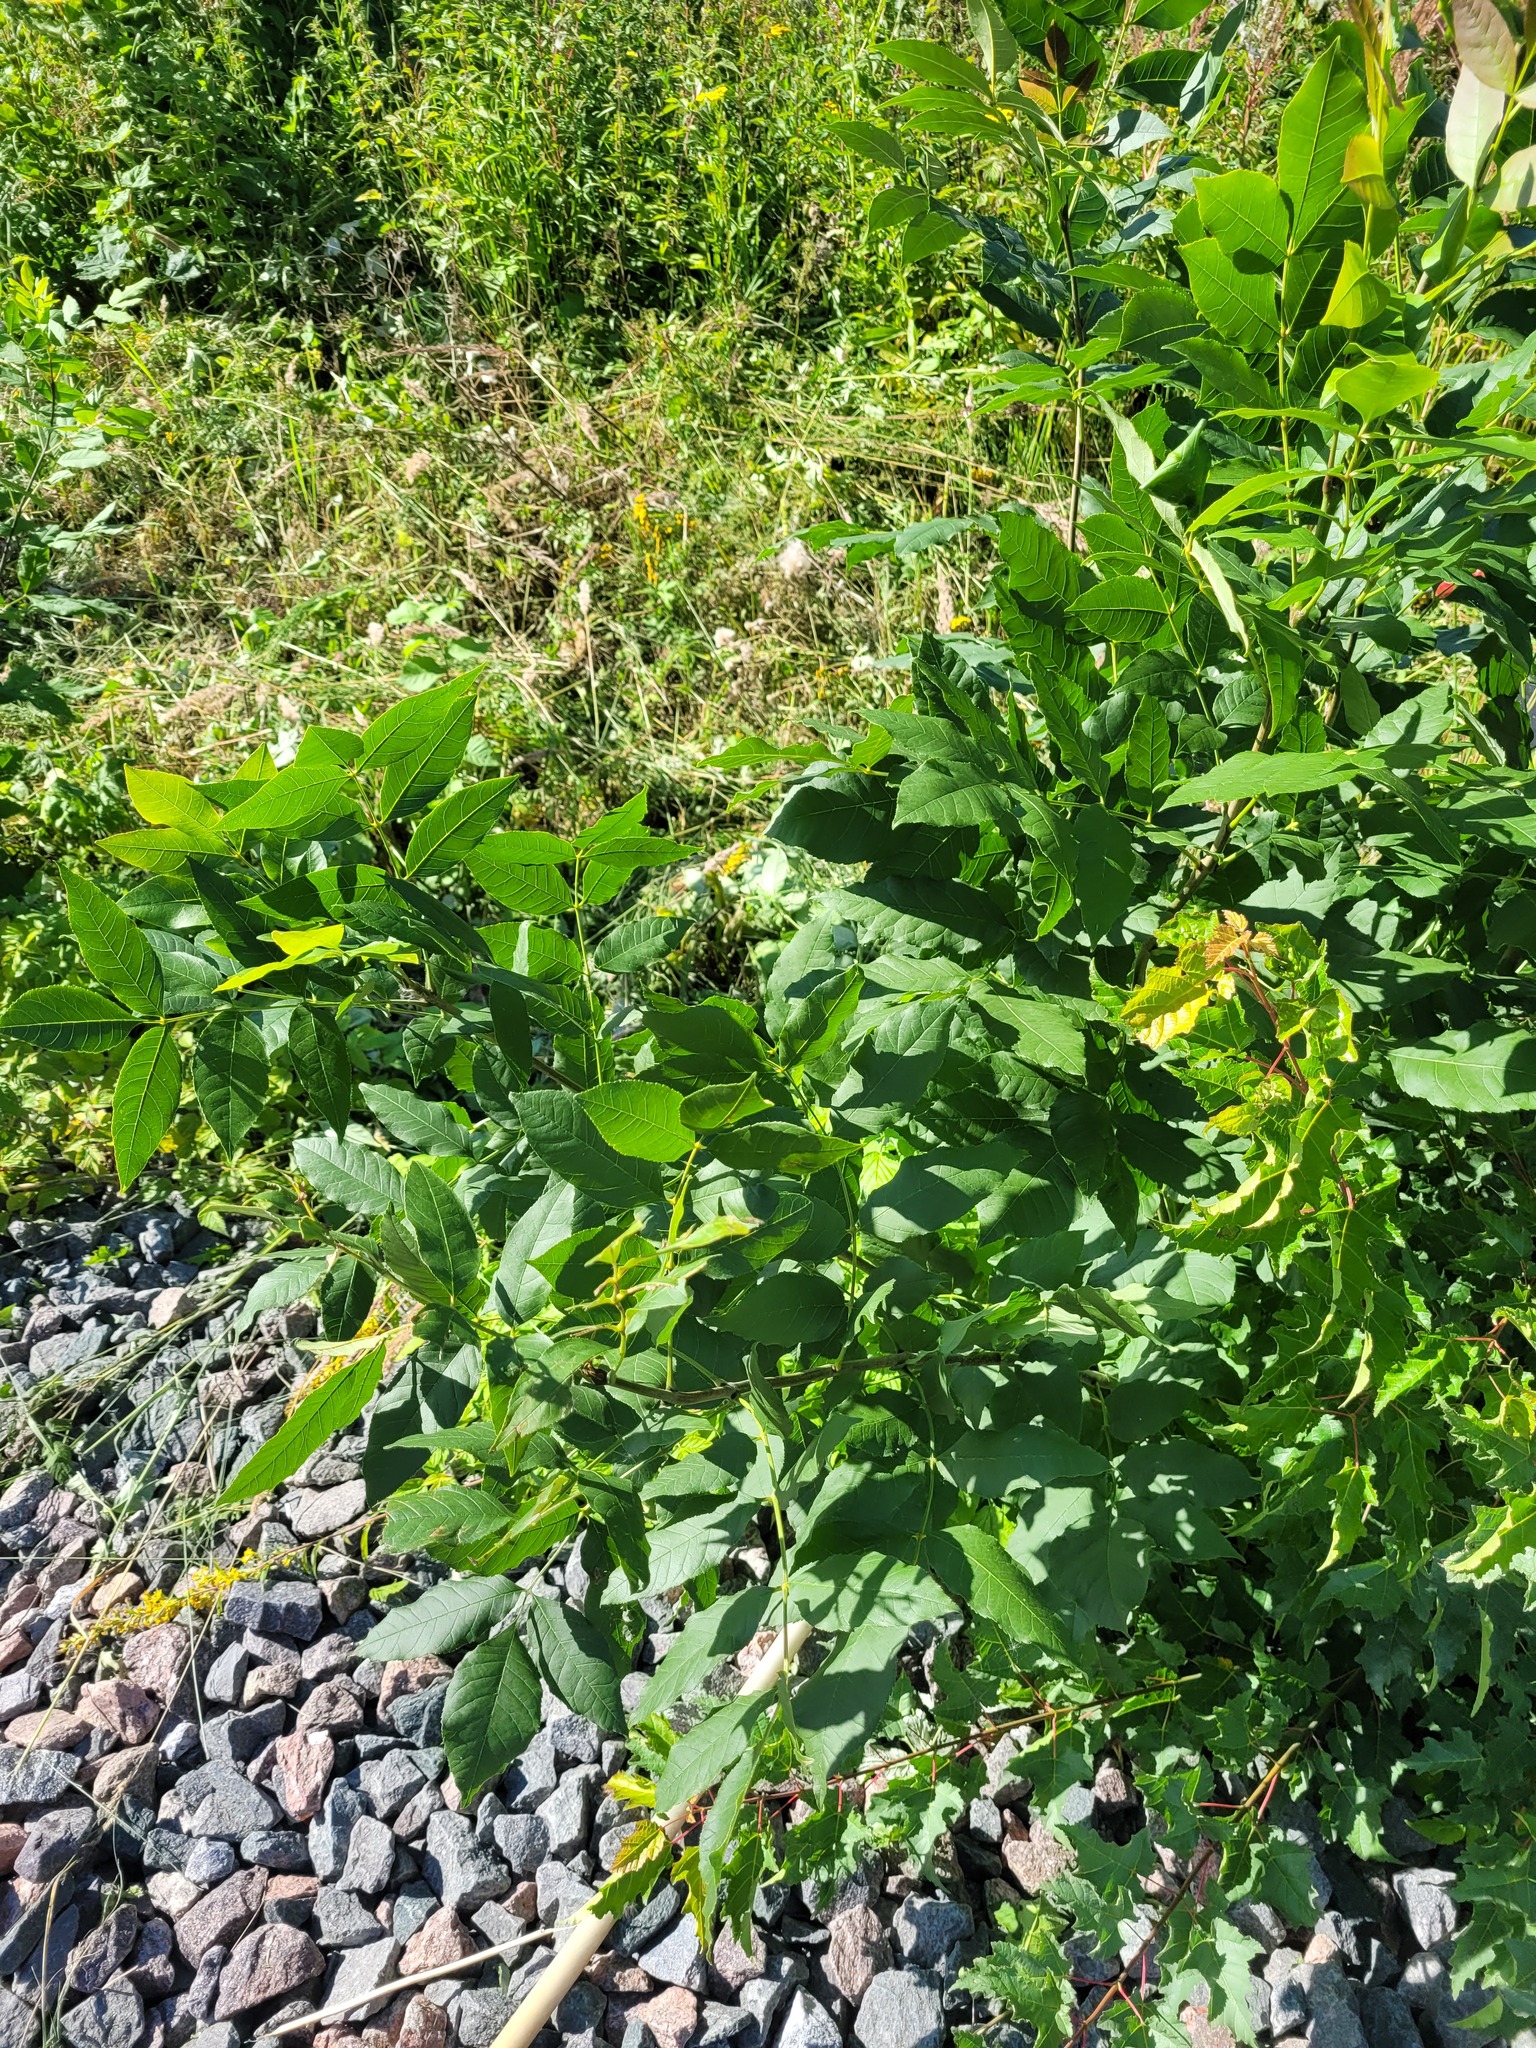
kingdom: Plantae
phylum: Tracheophyta
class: Magnoliopsida
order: Lamiales
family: Oleaceae
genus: Fraxinus
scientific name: Fraxinus pennsylvanica
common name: Green ash
